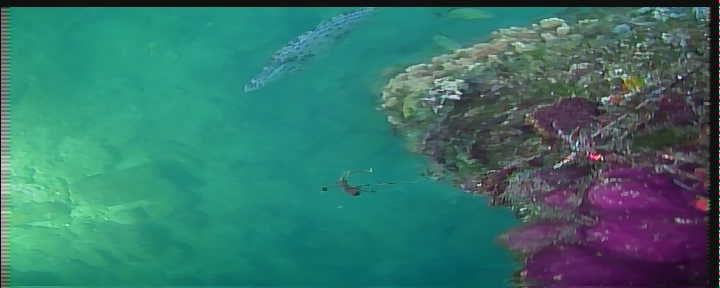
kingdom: Animalia
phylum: Chordata
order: Tetraodontiformes
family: Monacanthidae
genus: Aluterus
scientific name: Aluterus scriptus
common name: Scribbled leatherjacket filefish
